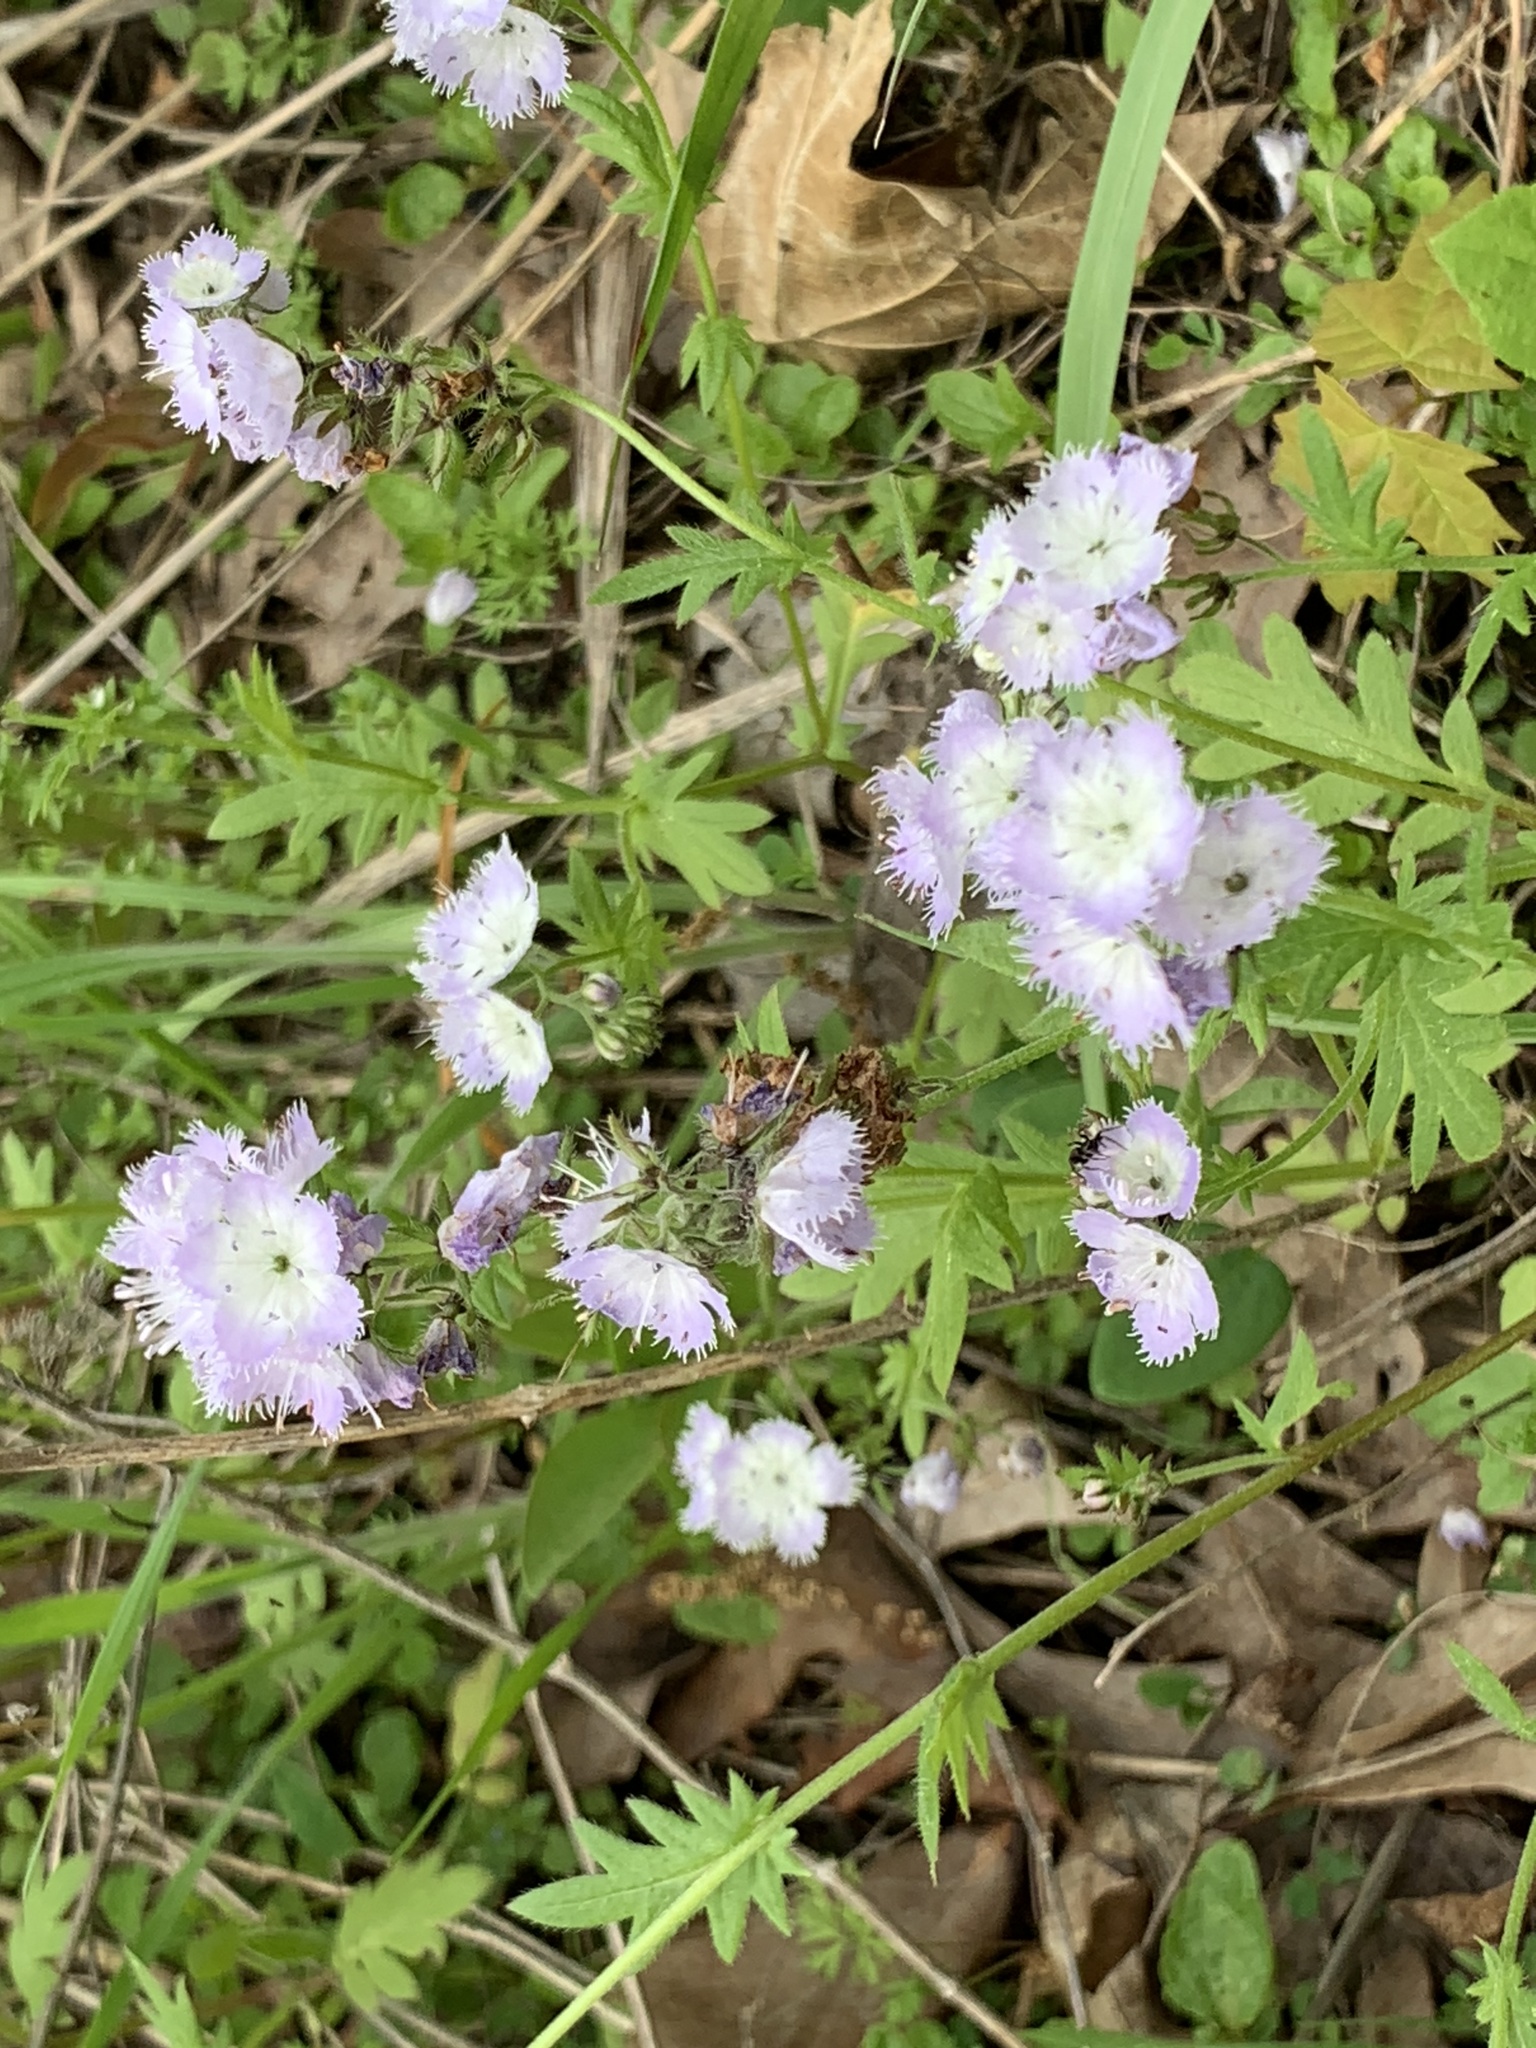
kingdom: Plantae
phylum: Tracheophyta
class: Magnoliopsida
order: Boraginales
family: Hydrophyllaceae
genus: Phacelia
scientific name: Phacelia purshii
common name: Miami-mist
